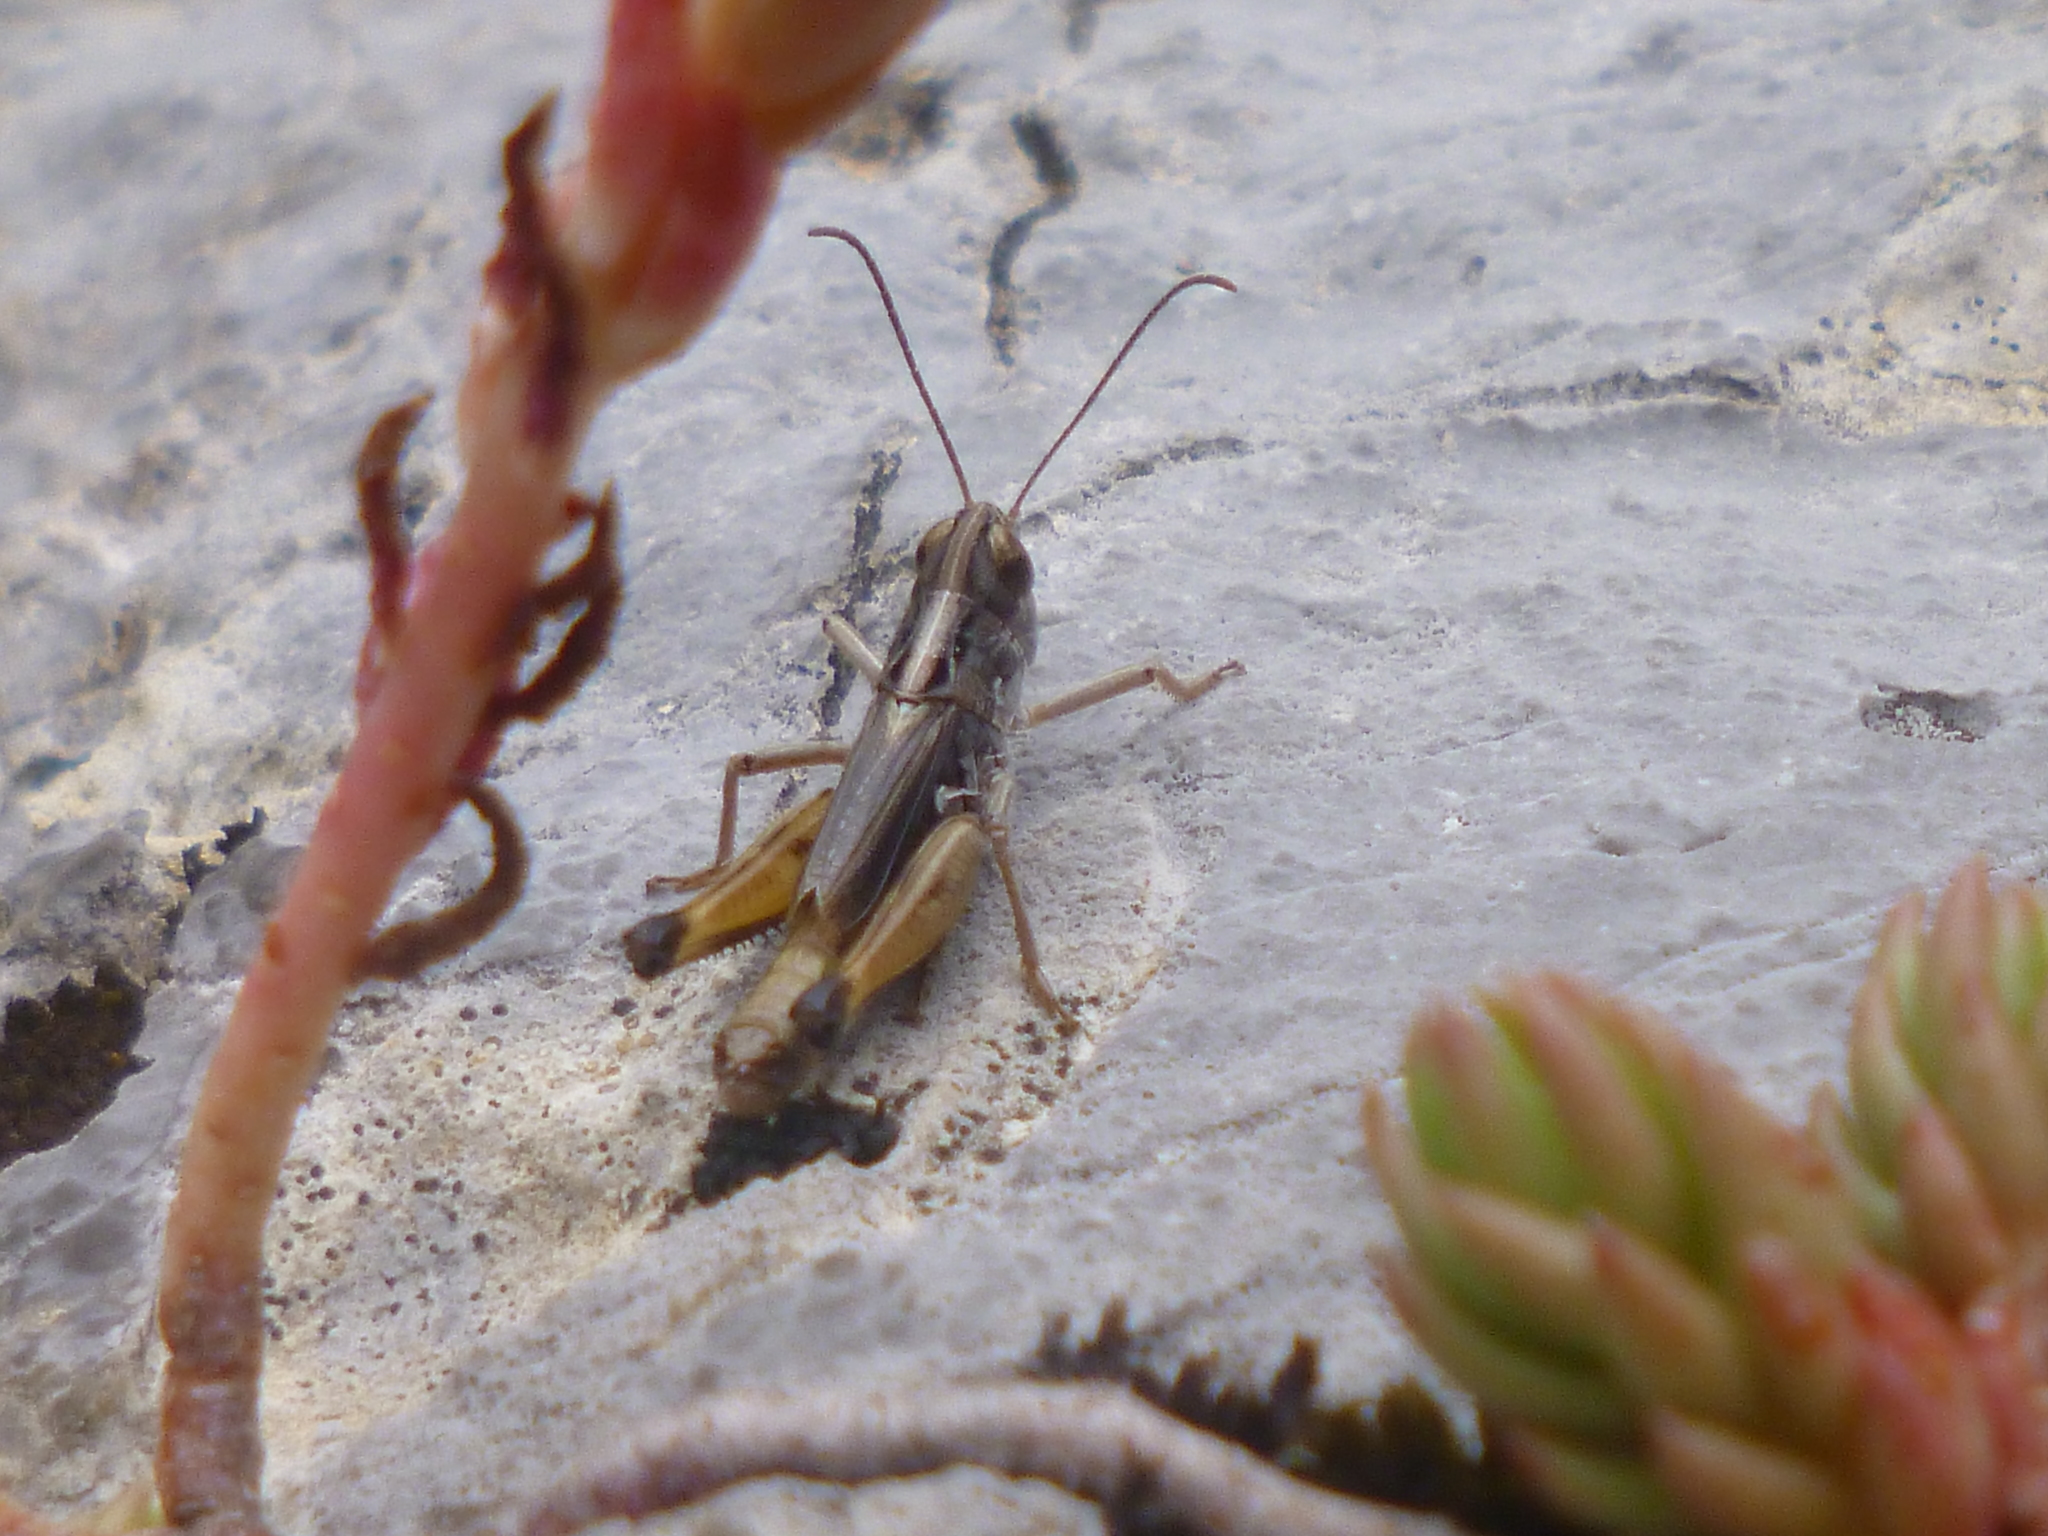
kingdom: Animalia
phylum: Arthropoda
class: Insecta
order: Orthoptera
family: Acrididae
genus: Rammeihippus
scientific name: Rammeihippus dinaricus
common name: Dinarian grasshopper
